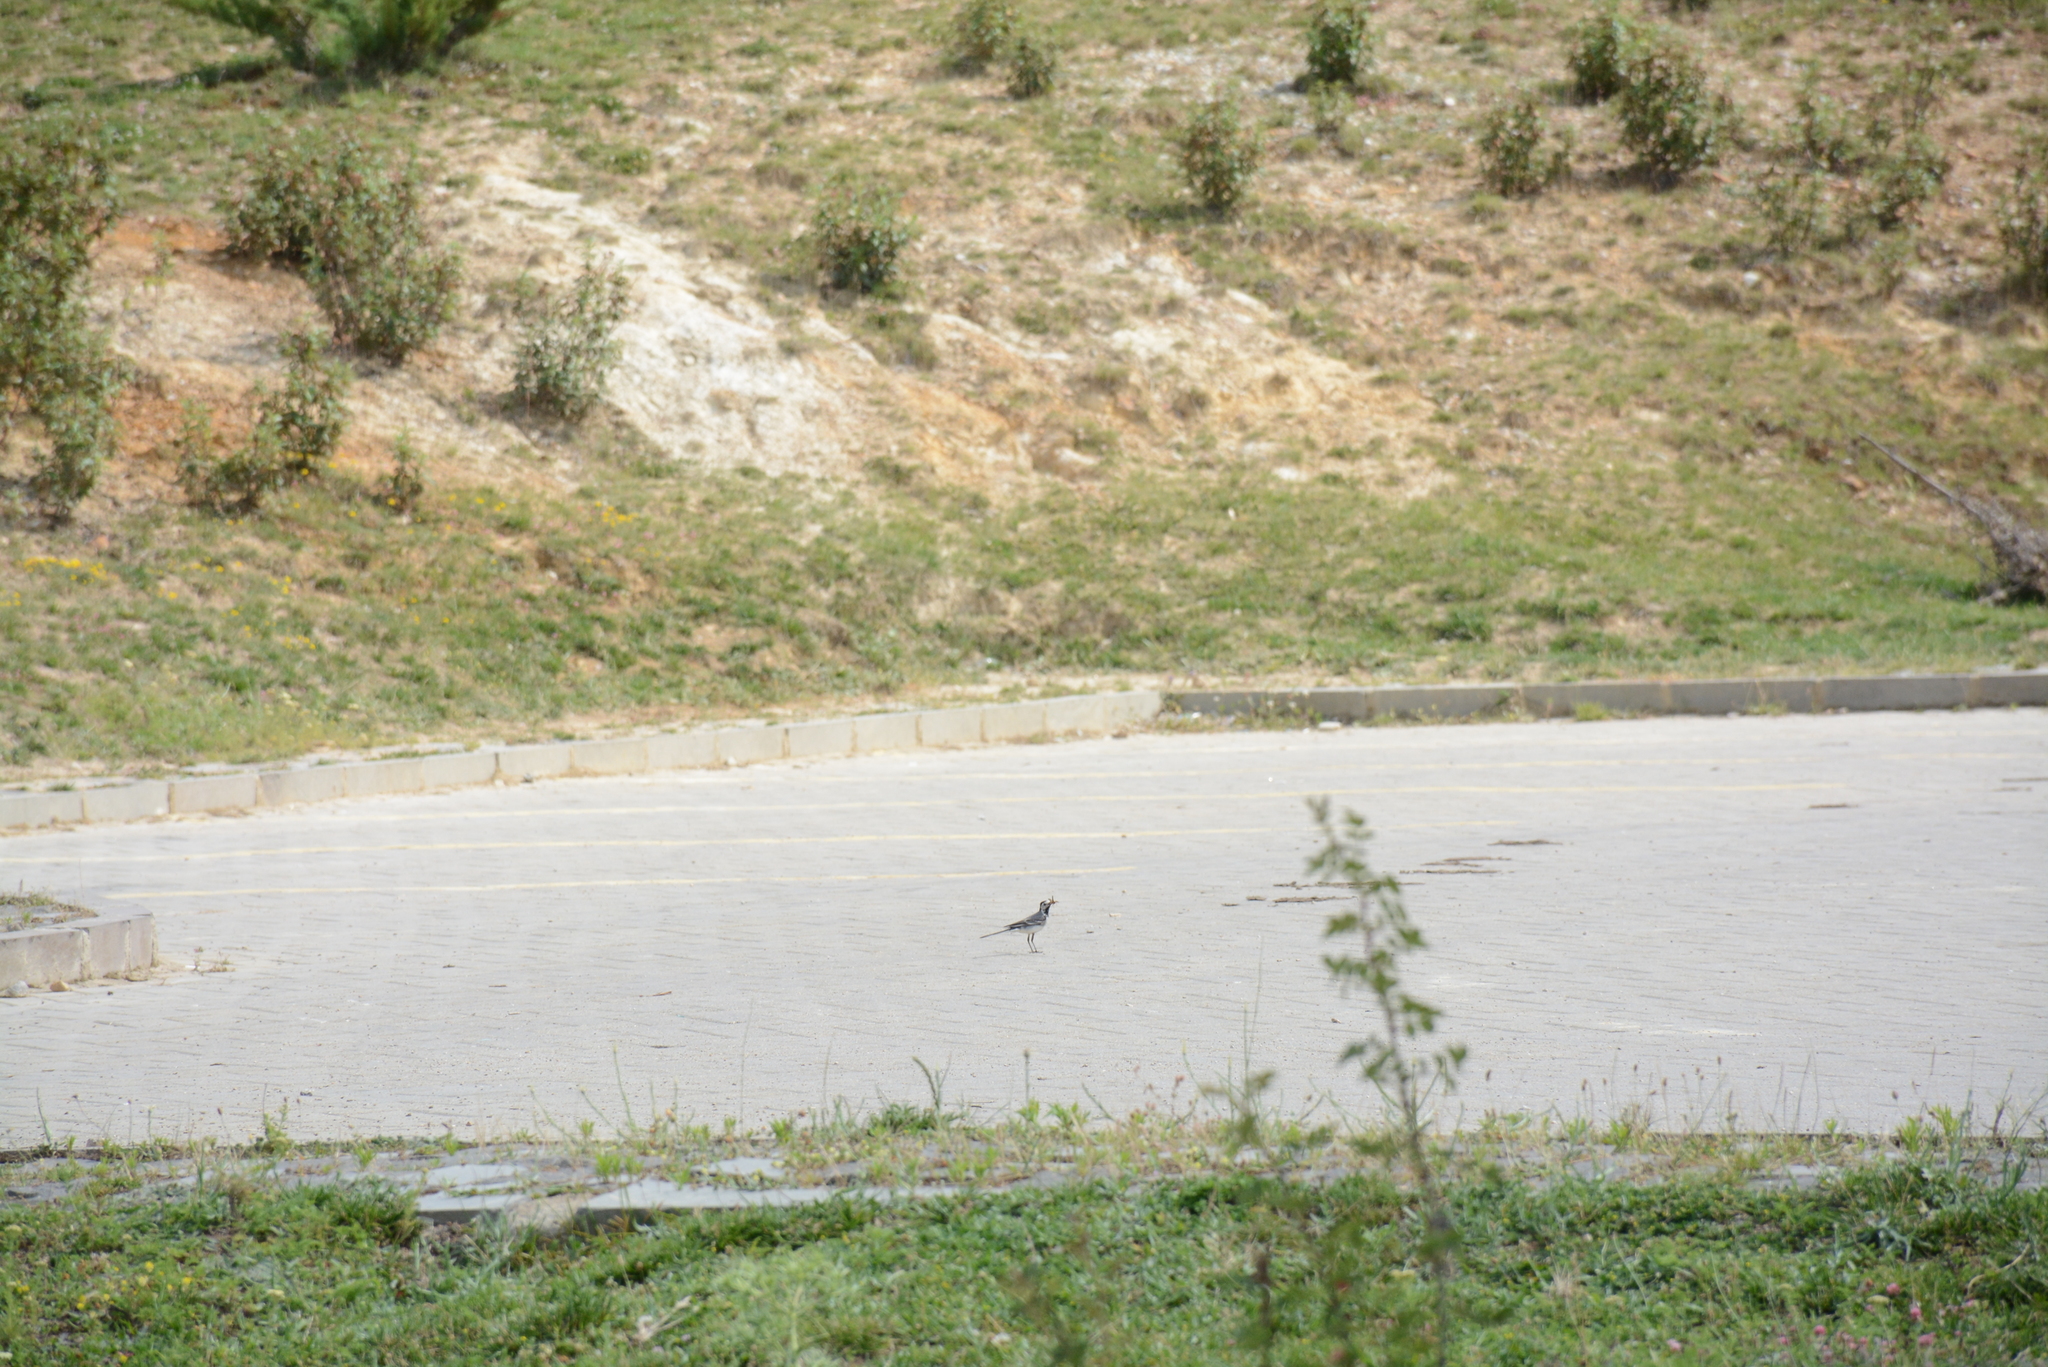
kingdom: Animalia
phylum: Chordata
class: Aves
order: Passeriformes
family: Motacillidae
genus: Motacilla
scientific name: Motacilla alba
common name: White wagtail
